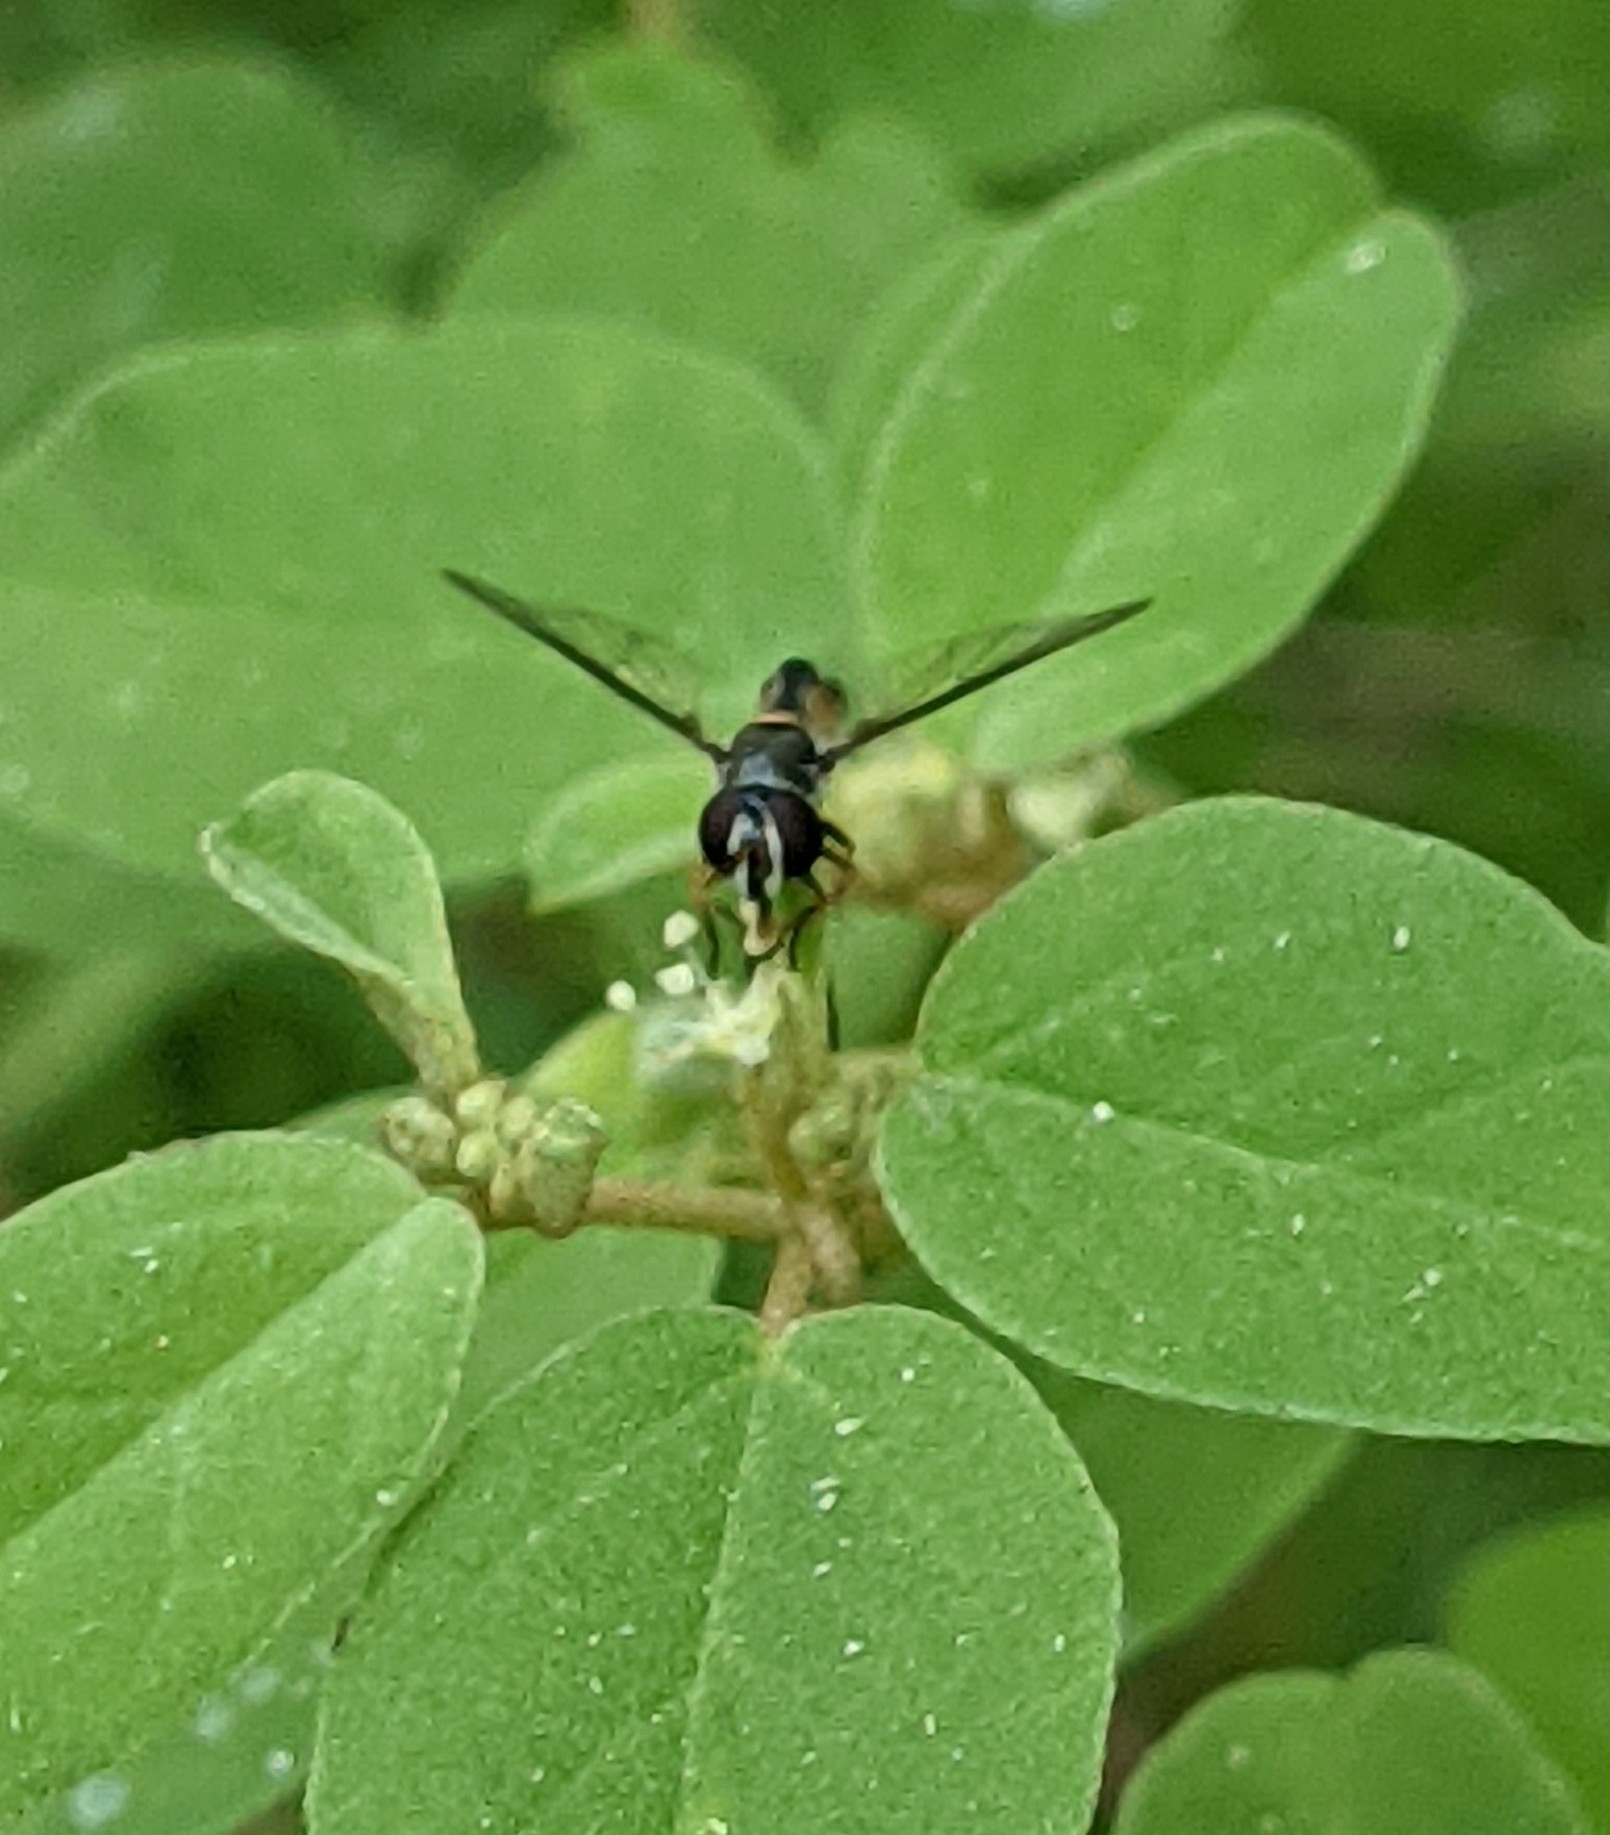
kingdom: Animalia
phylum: Arthropoda
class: Insecta
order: Diptera
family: Syrphidae
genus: Dioprosopa
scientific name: Dioprosopa clavatus
